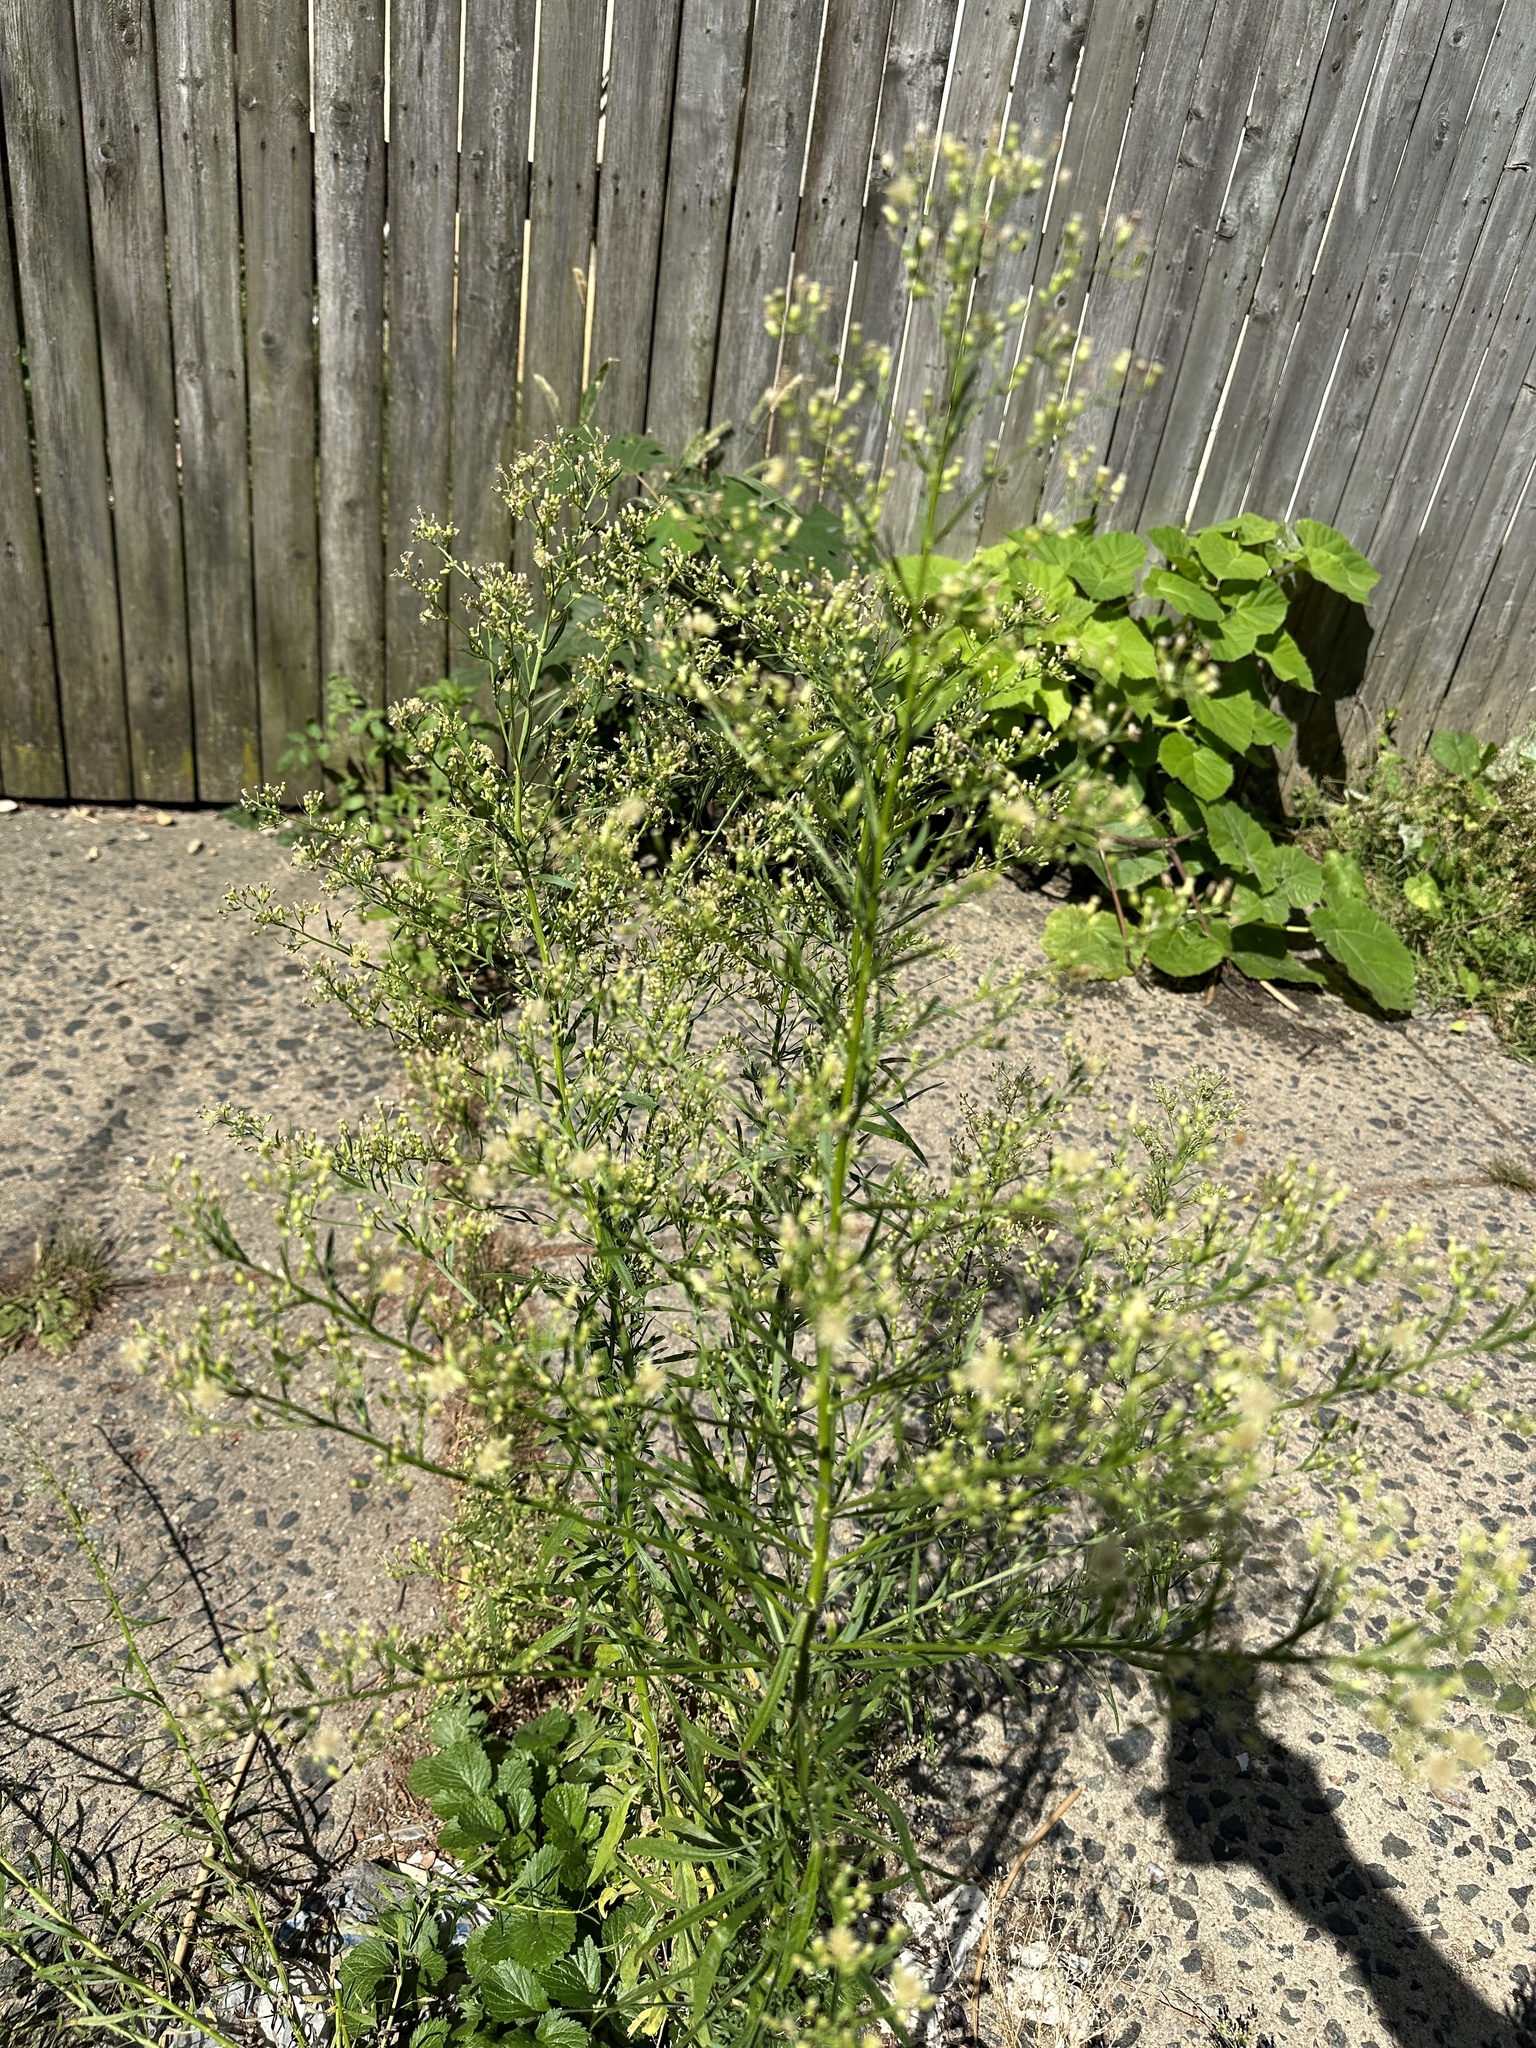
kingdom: Plantae
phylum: Tracheophyta
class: Magnoliopsida
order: Asterales
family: Asteraceae
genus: Erigeron
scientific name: Erigeron canadensis
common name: Canadian fleabane
